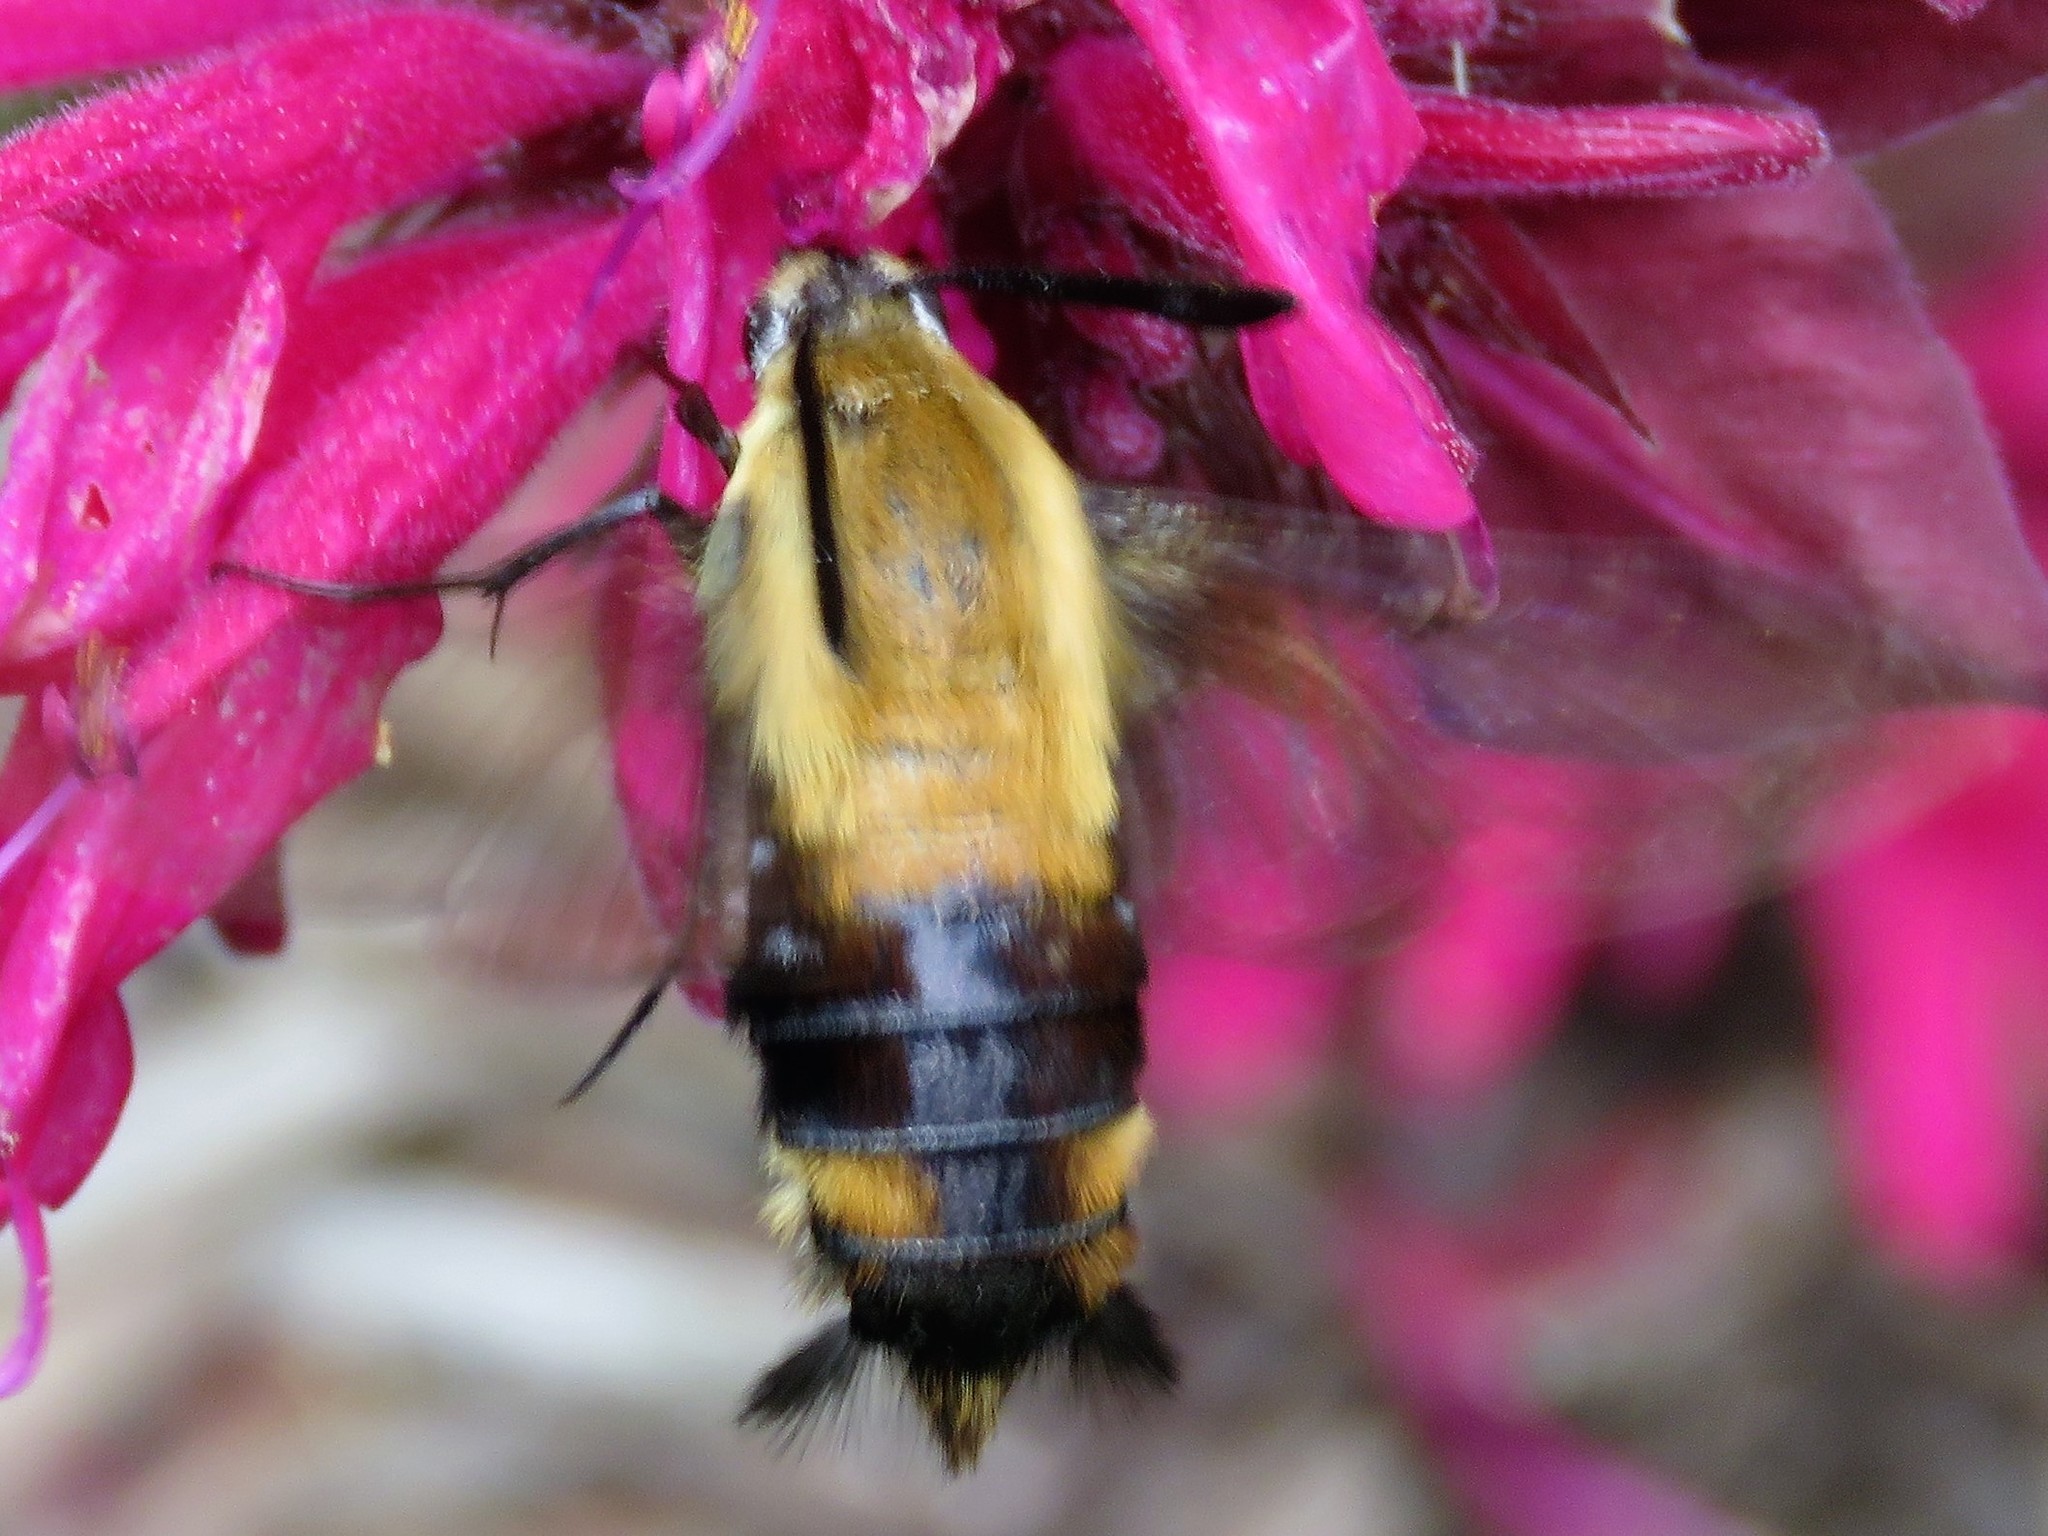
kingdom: Animalia
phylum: Arthropoda
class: Insecta
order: Lepidoptera
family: Sphingidae
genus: Hemaris
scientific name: Hemaris diffinis
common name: Bumblebee moth
